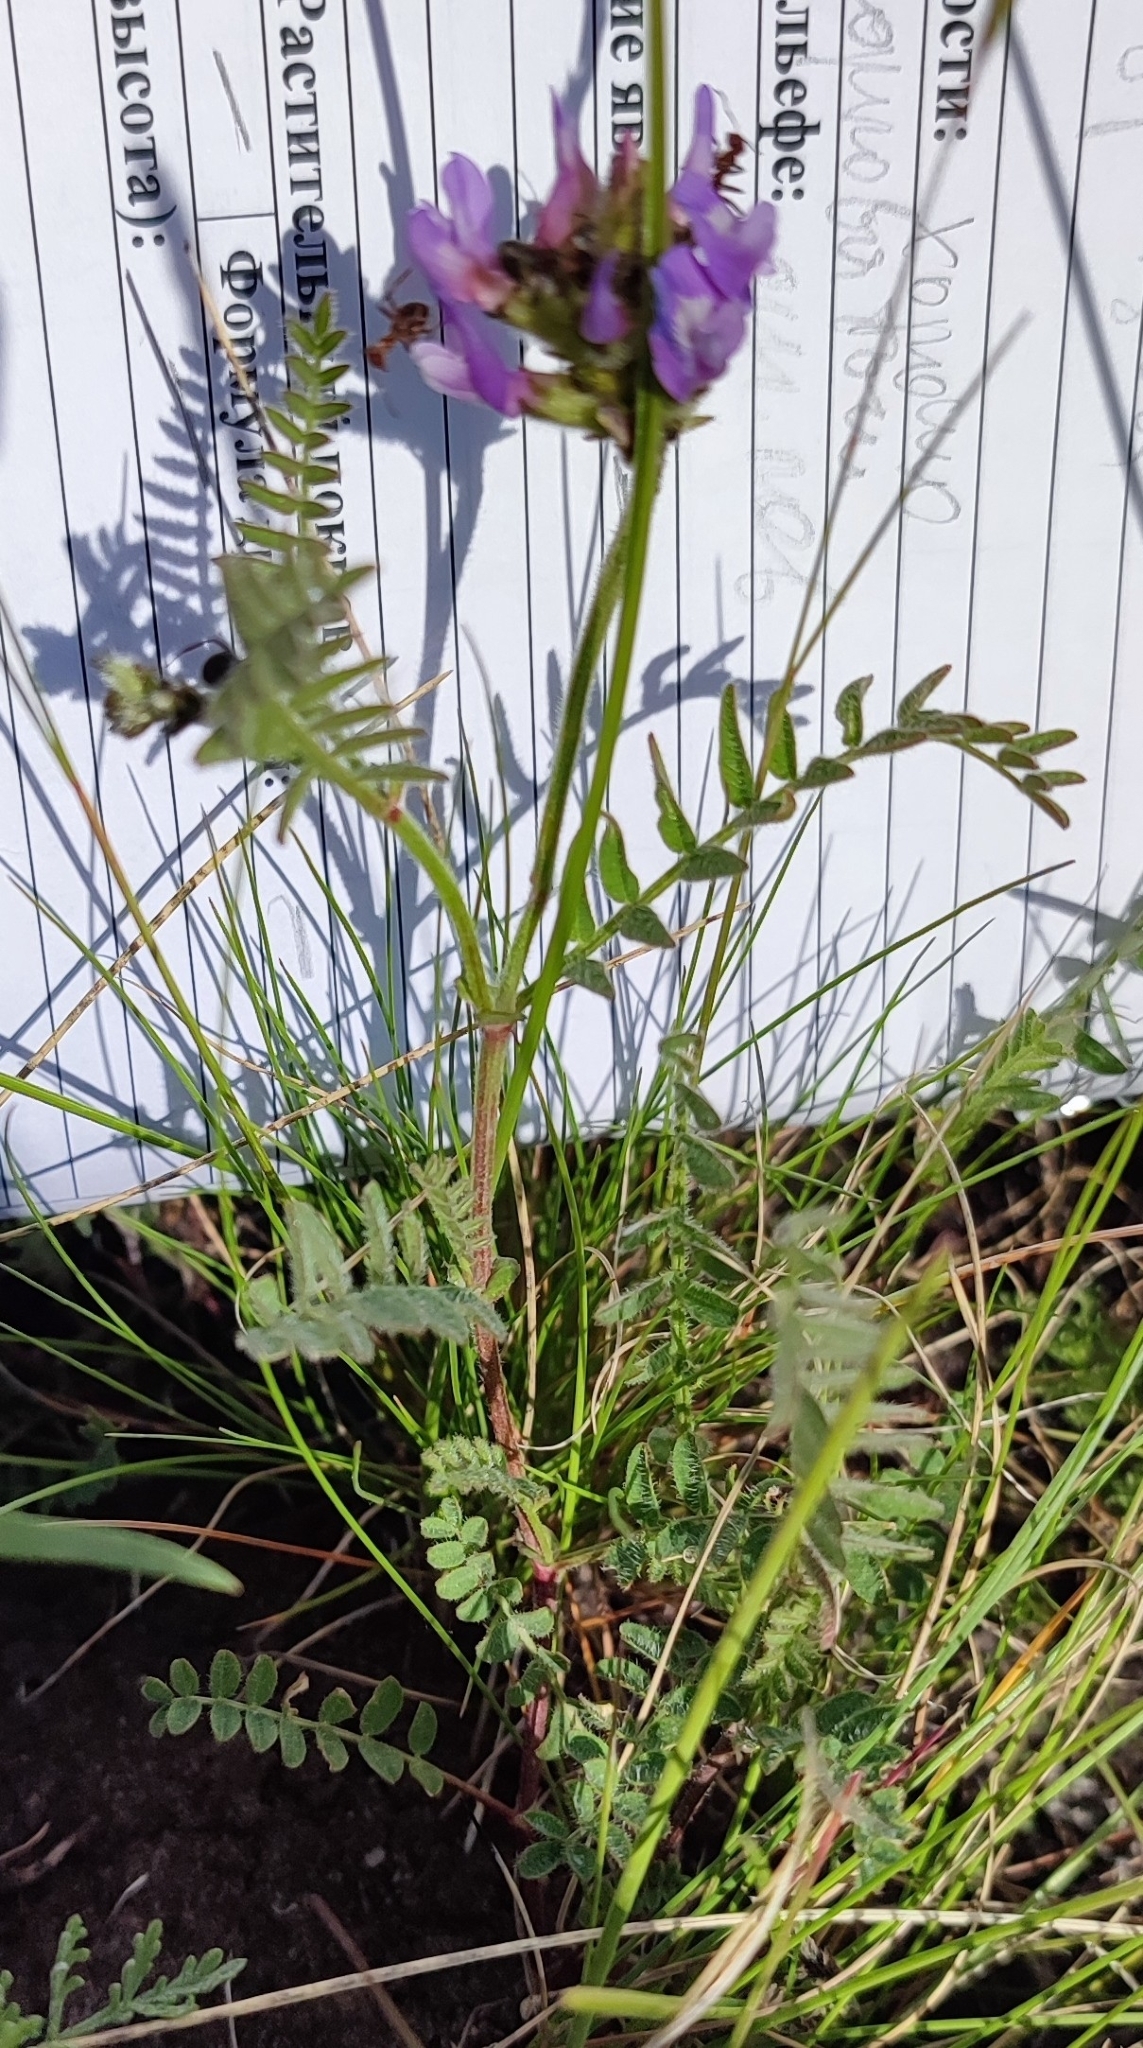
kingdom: Plantae
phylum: Tracheophyta
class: Magnoliopsida
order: Fabales
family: Fabaceae
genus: Astragalus
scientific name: Astragalus danicus
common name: Purple milk-vetch
